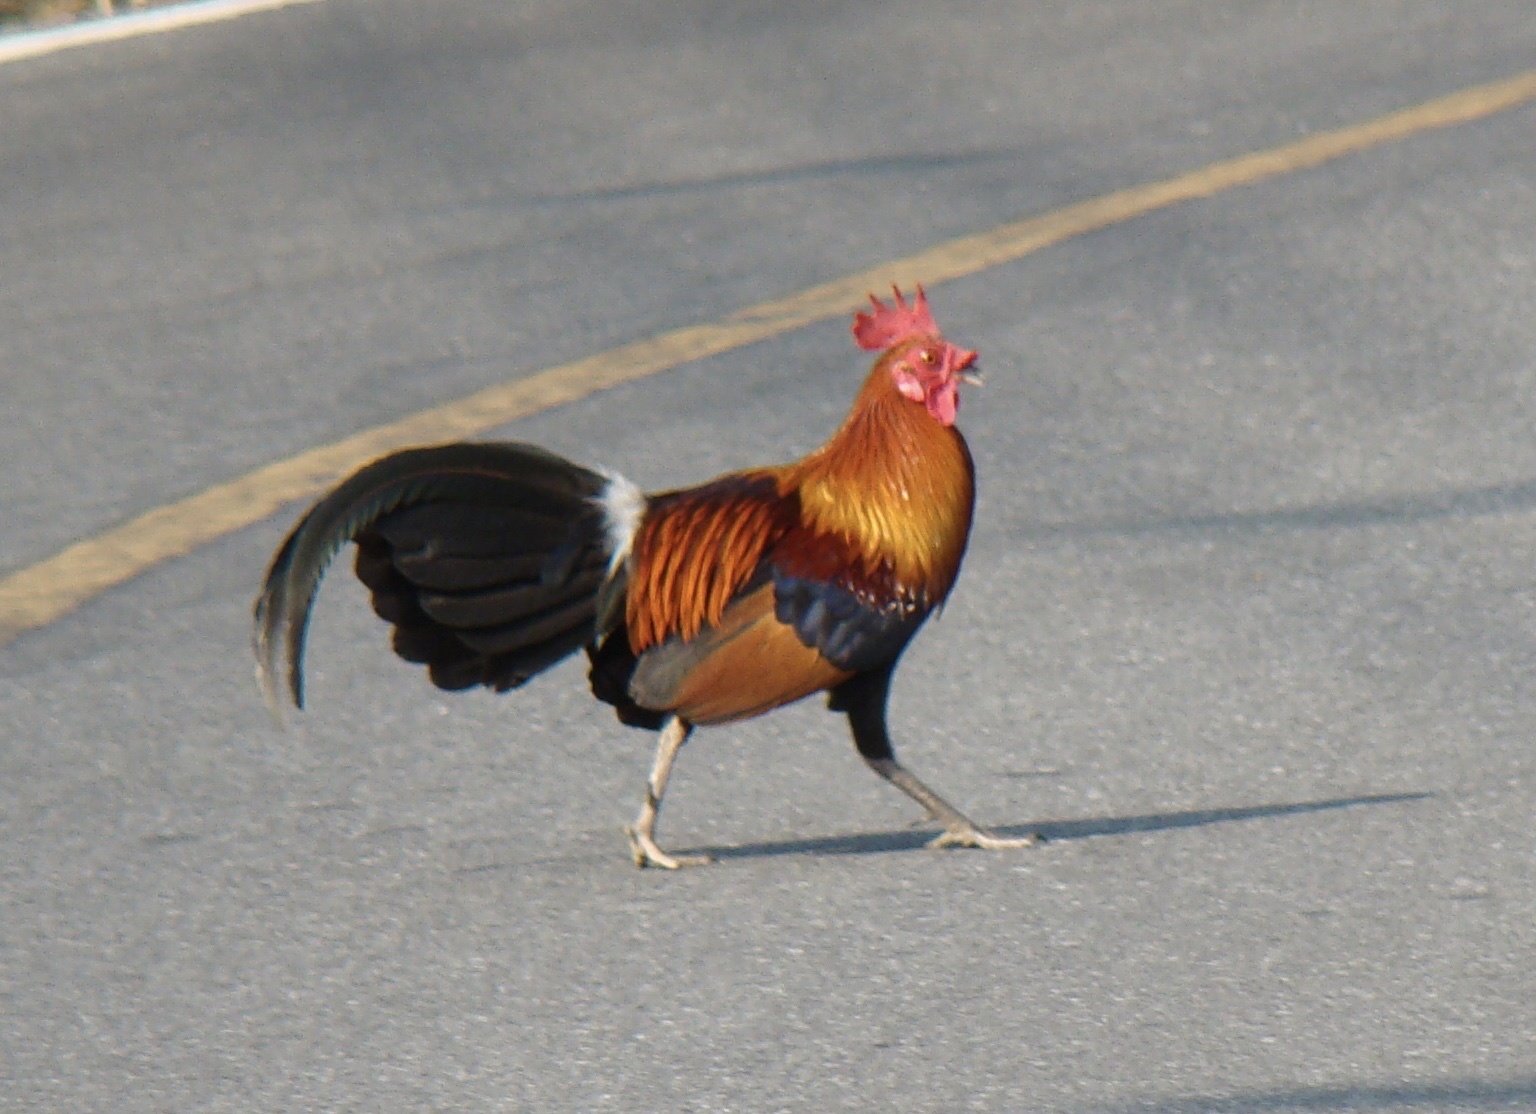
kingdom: Animalia
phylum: Chordata
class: Aves
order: Galliformes
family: Phasianidae
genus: Gallus
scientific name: Gallus gallus
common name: Red junglefowl
